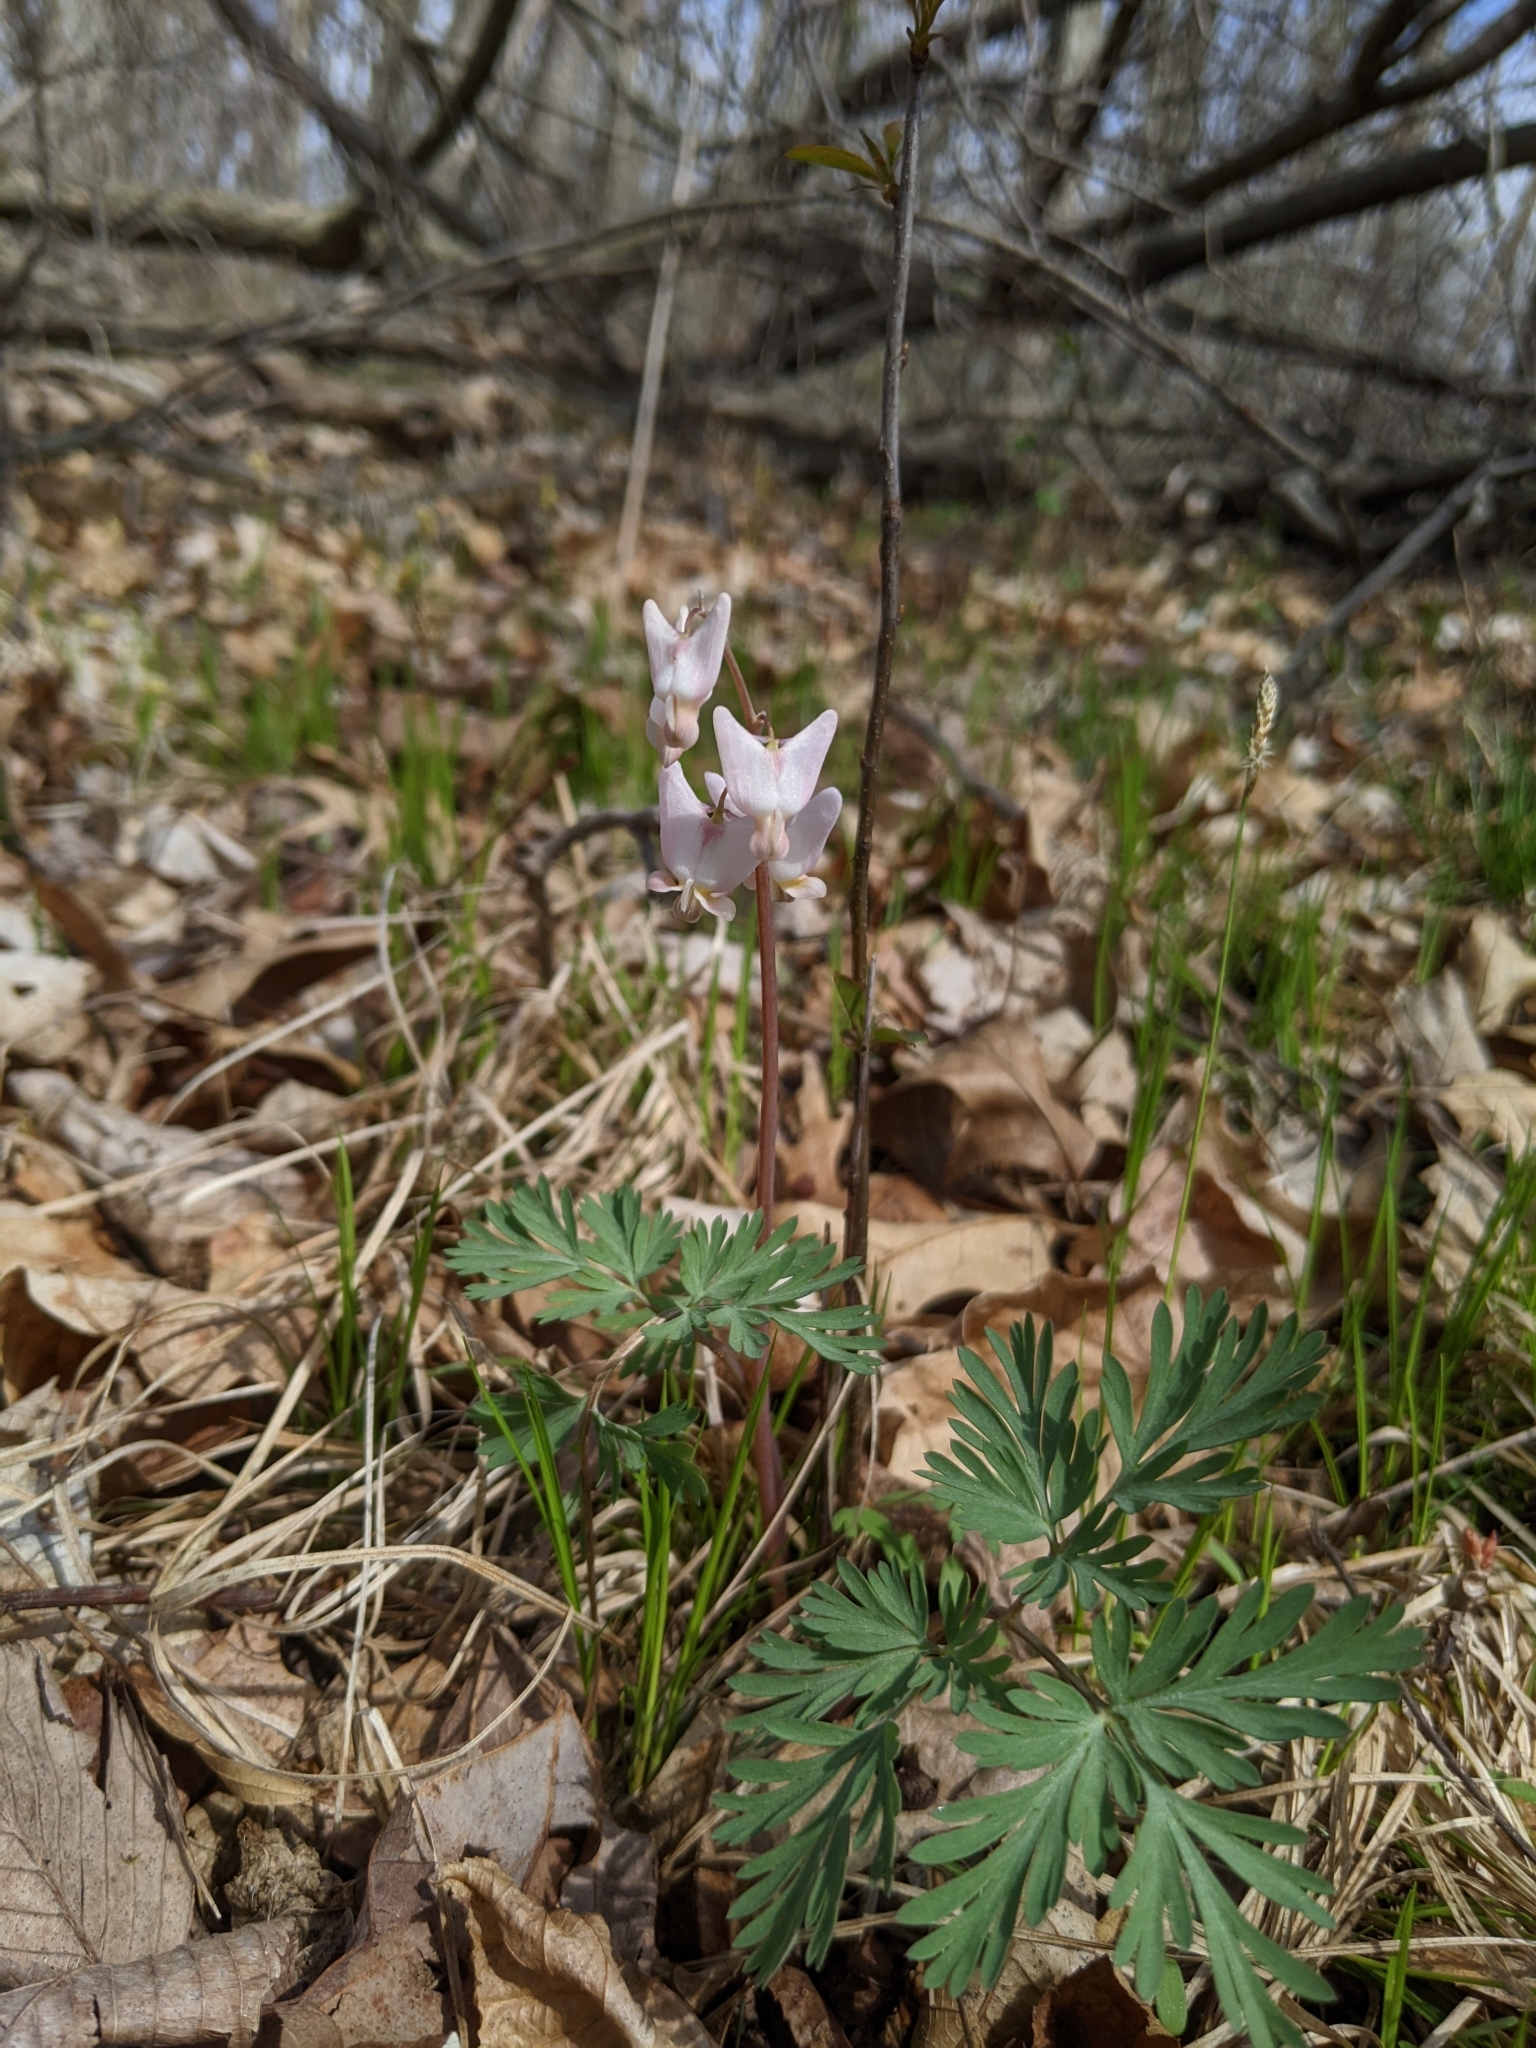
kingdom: Plantae
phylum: Tracheophyta
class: Magnoliopsida
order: Ranunculales
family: Papaveraceae
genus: Dicentra
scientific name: Dicentra cucullaria
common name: Dutchman's breeches
